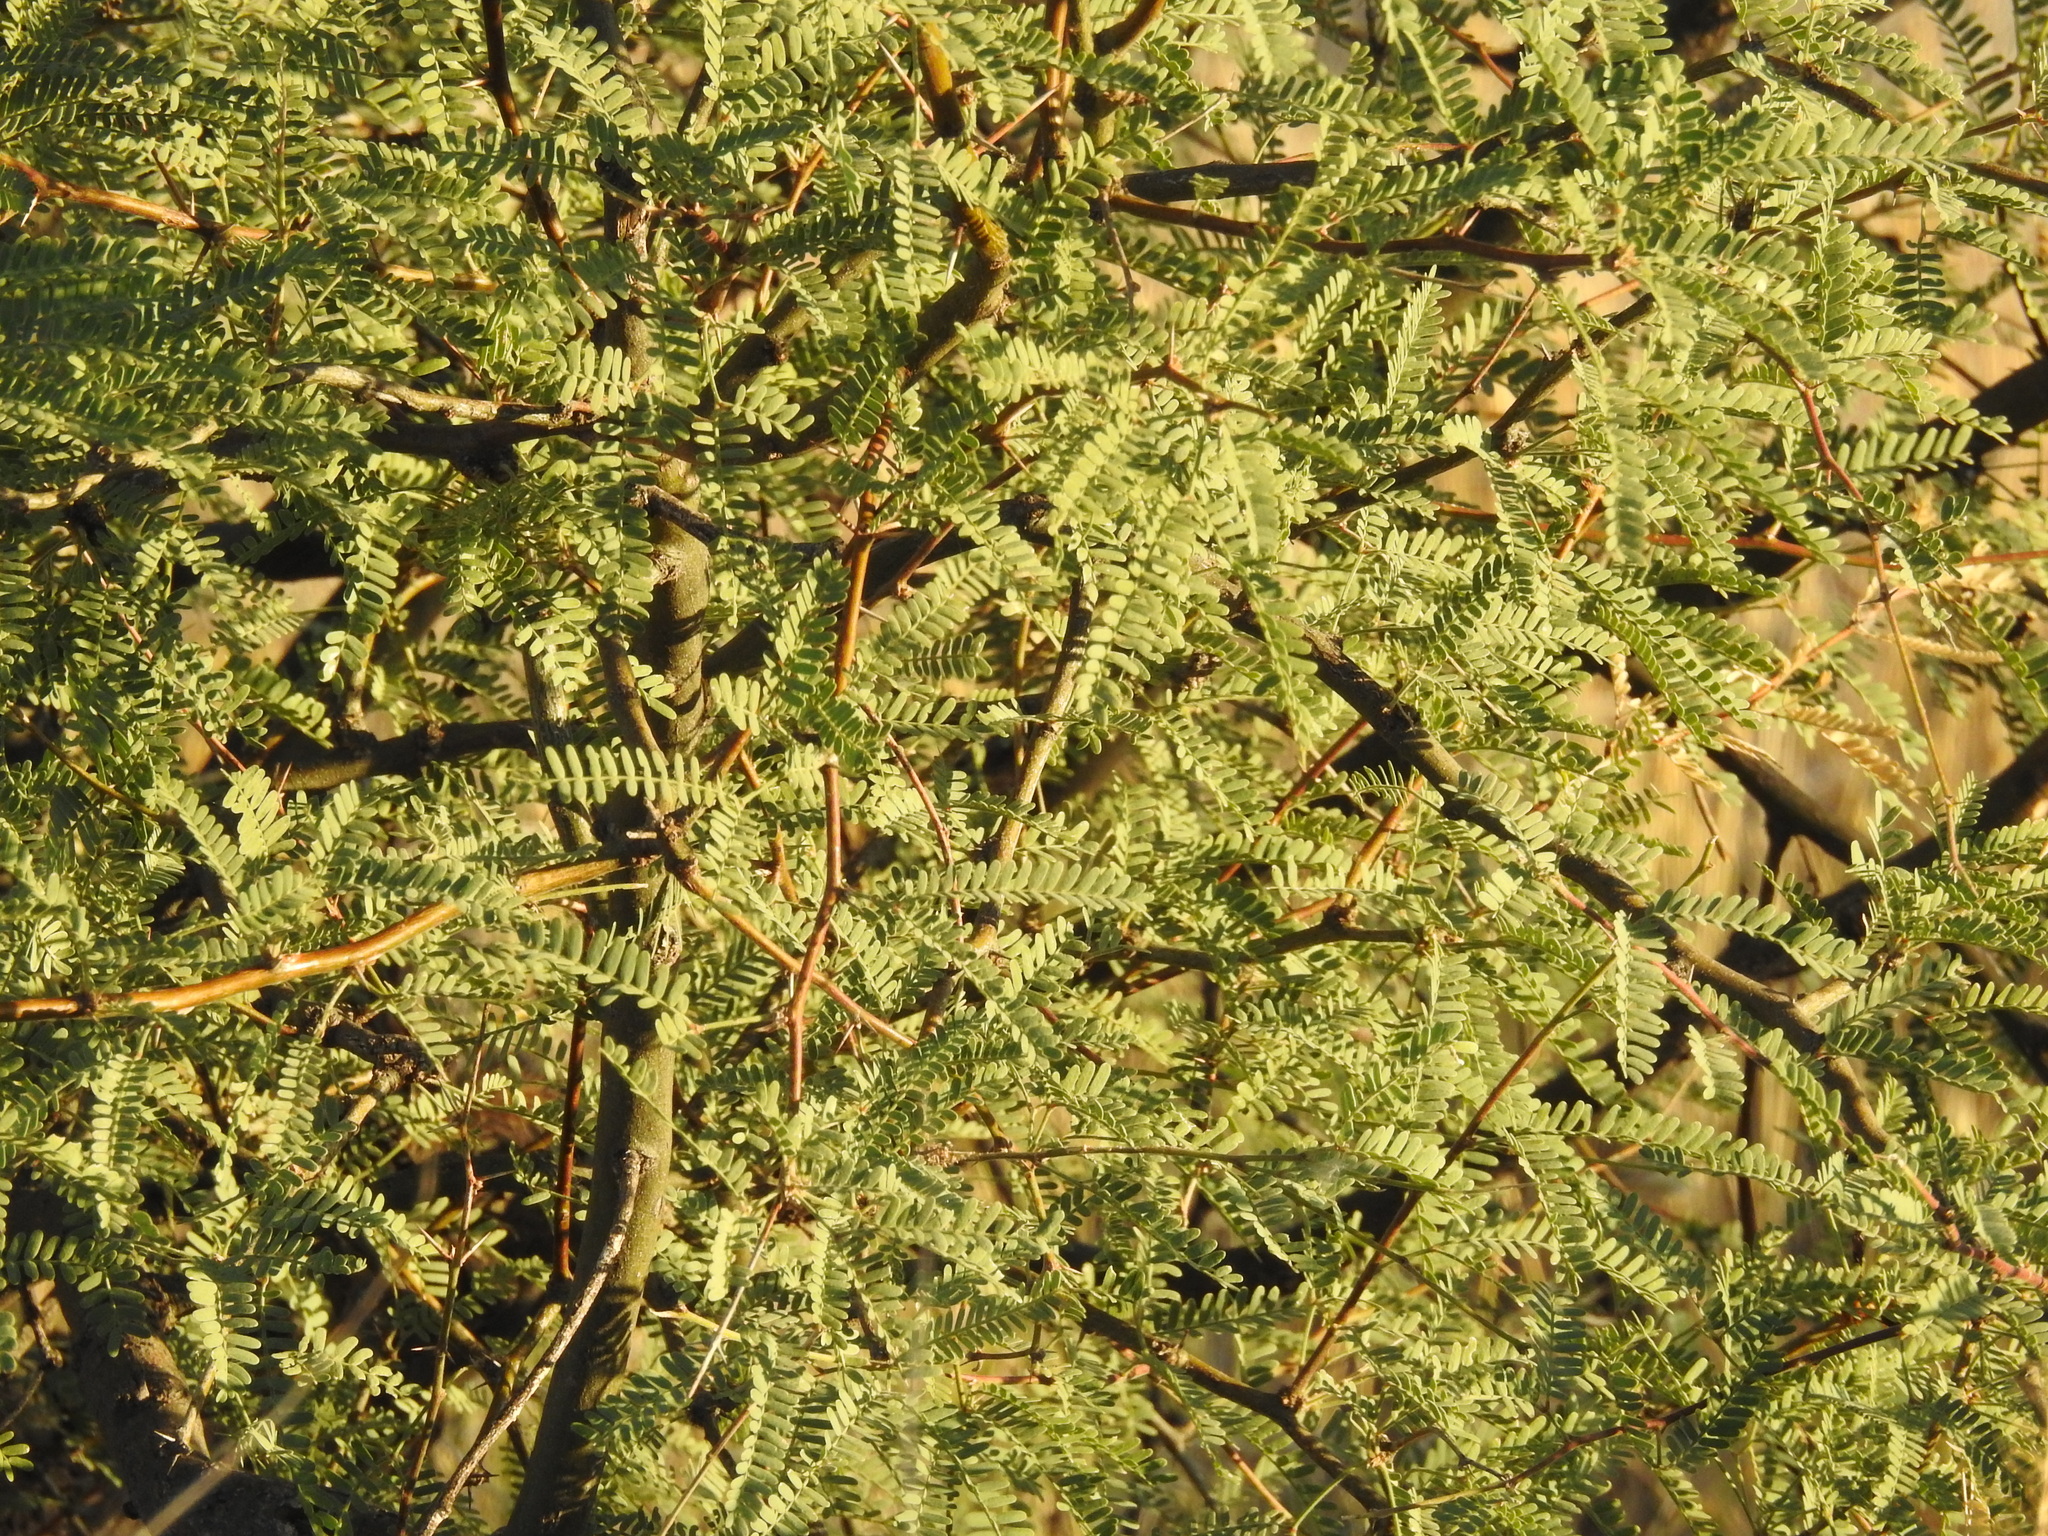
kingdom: Plantae
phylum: Tracheophyta
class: Magnoliopsida
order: Fabales
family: Fabaceae
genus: Prosopis
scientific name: Prosopis velutina
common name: Velvet mesquite
